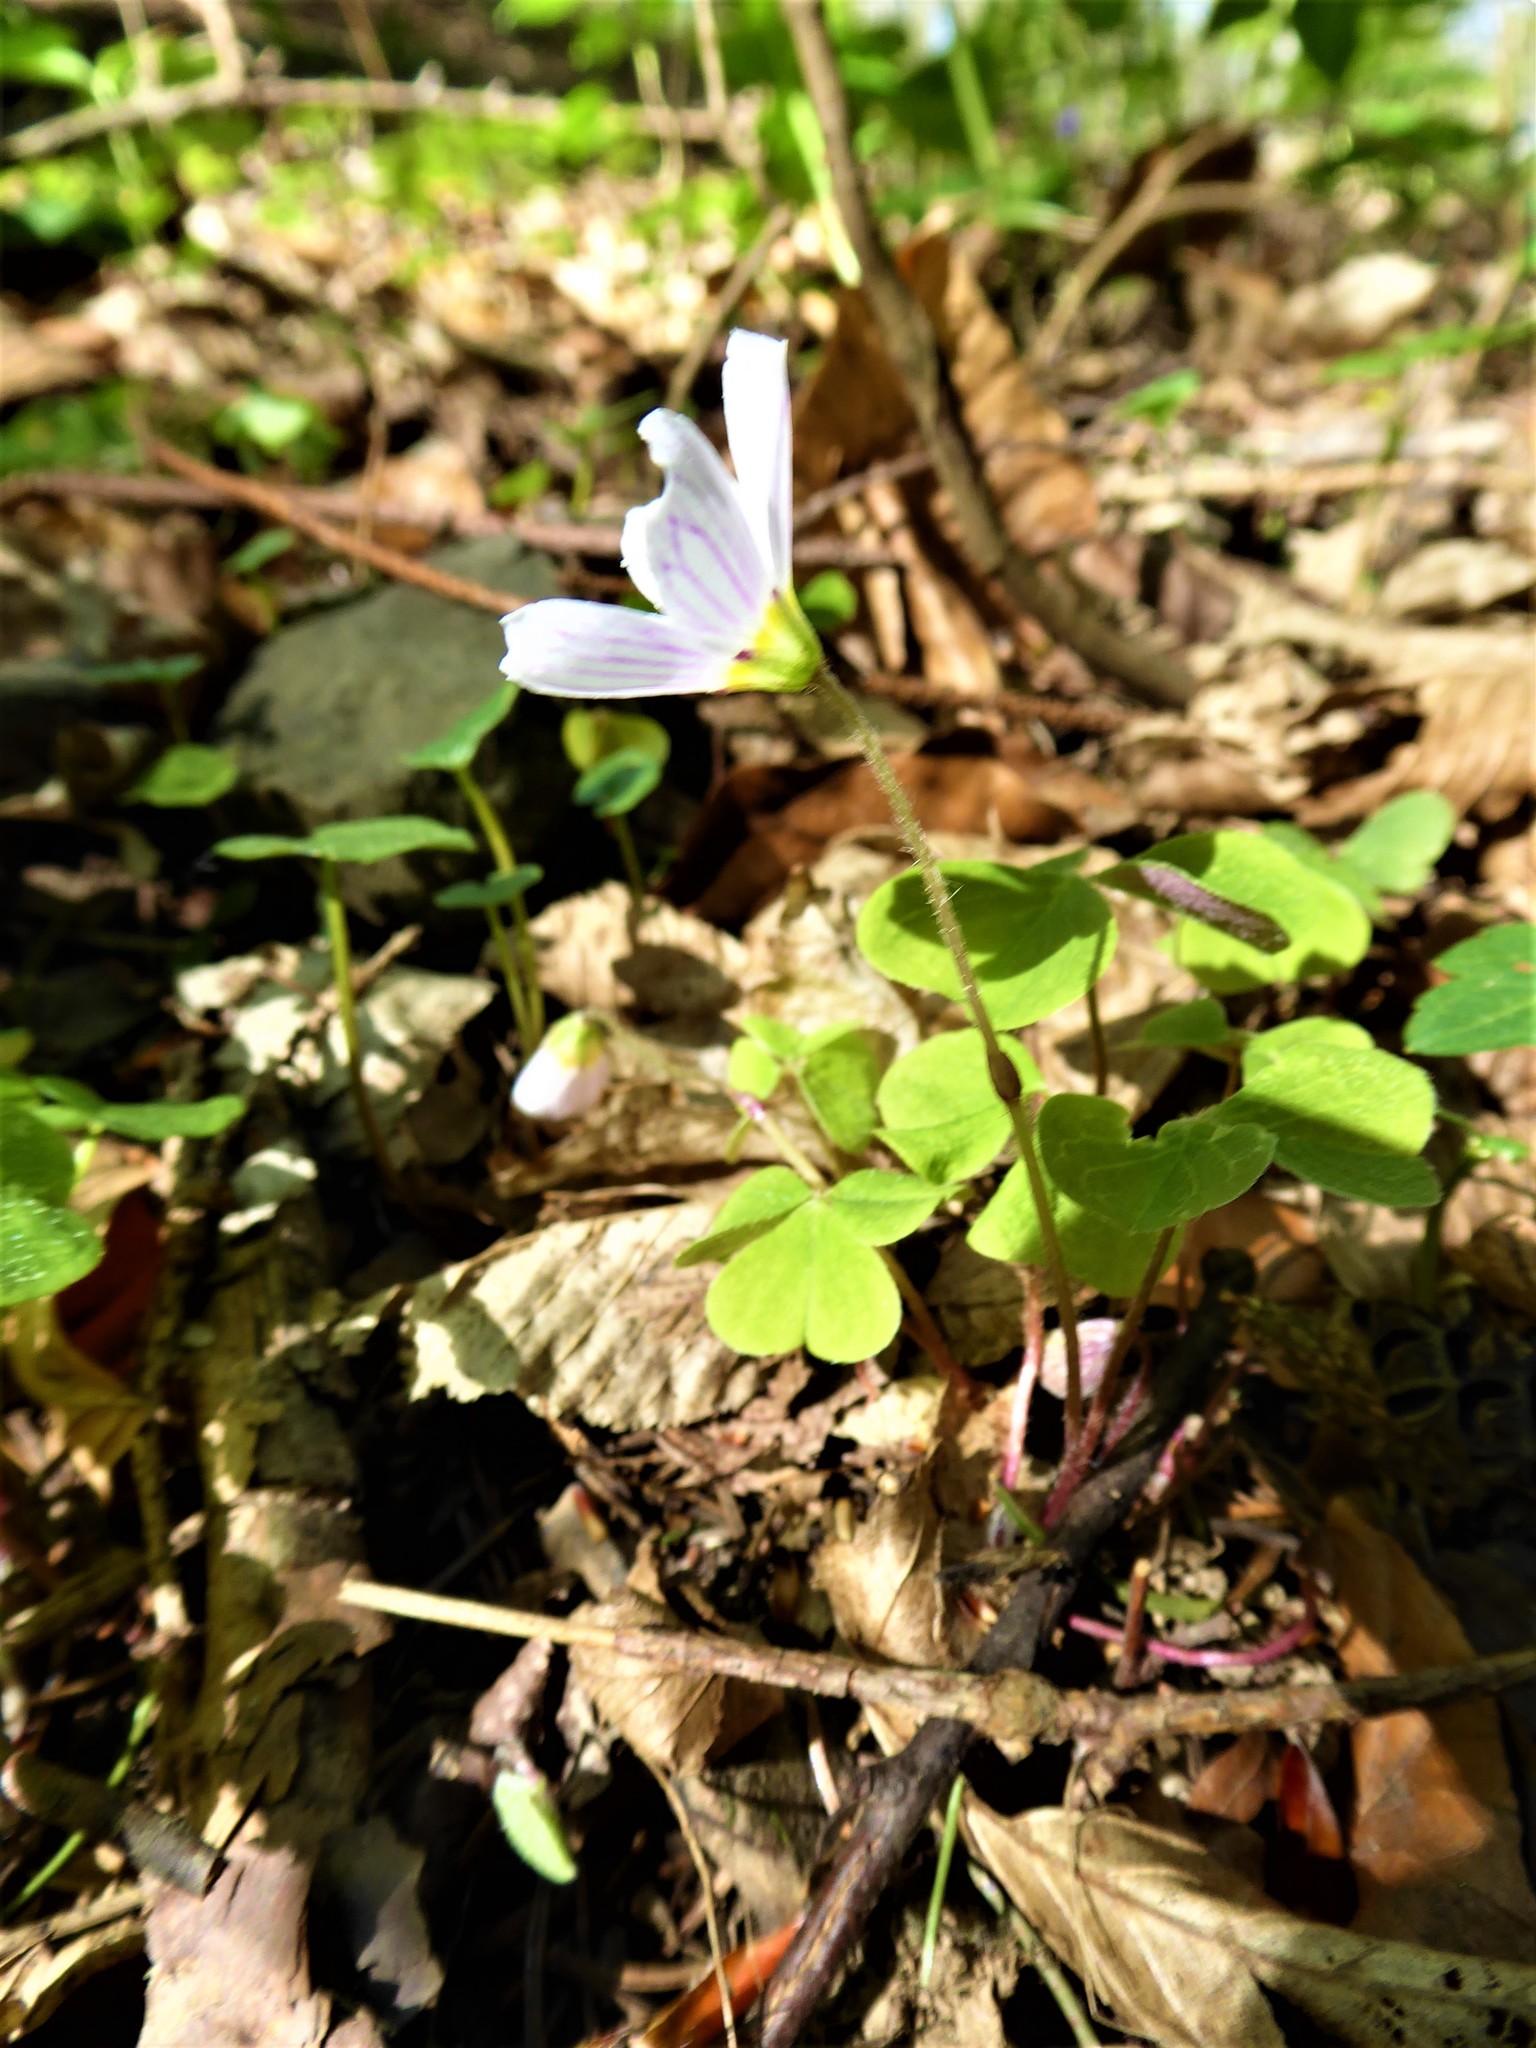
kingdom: Plantae
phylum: Tracheophyta
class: Magnoliopsida
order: Oxalidales
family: Oxalidaceae
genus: Oxalis
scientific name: Oxalis acetosella
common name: Wood-sorrel
